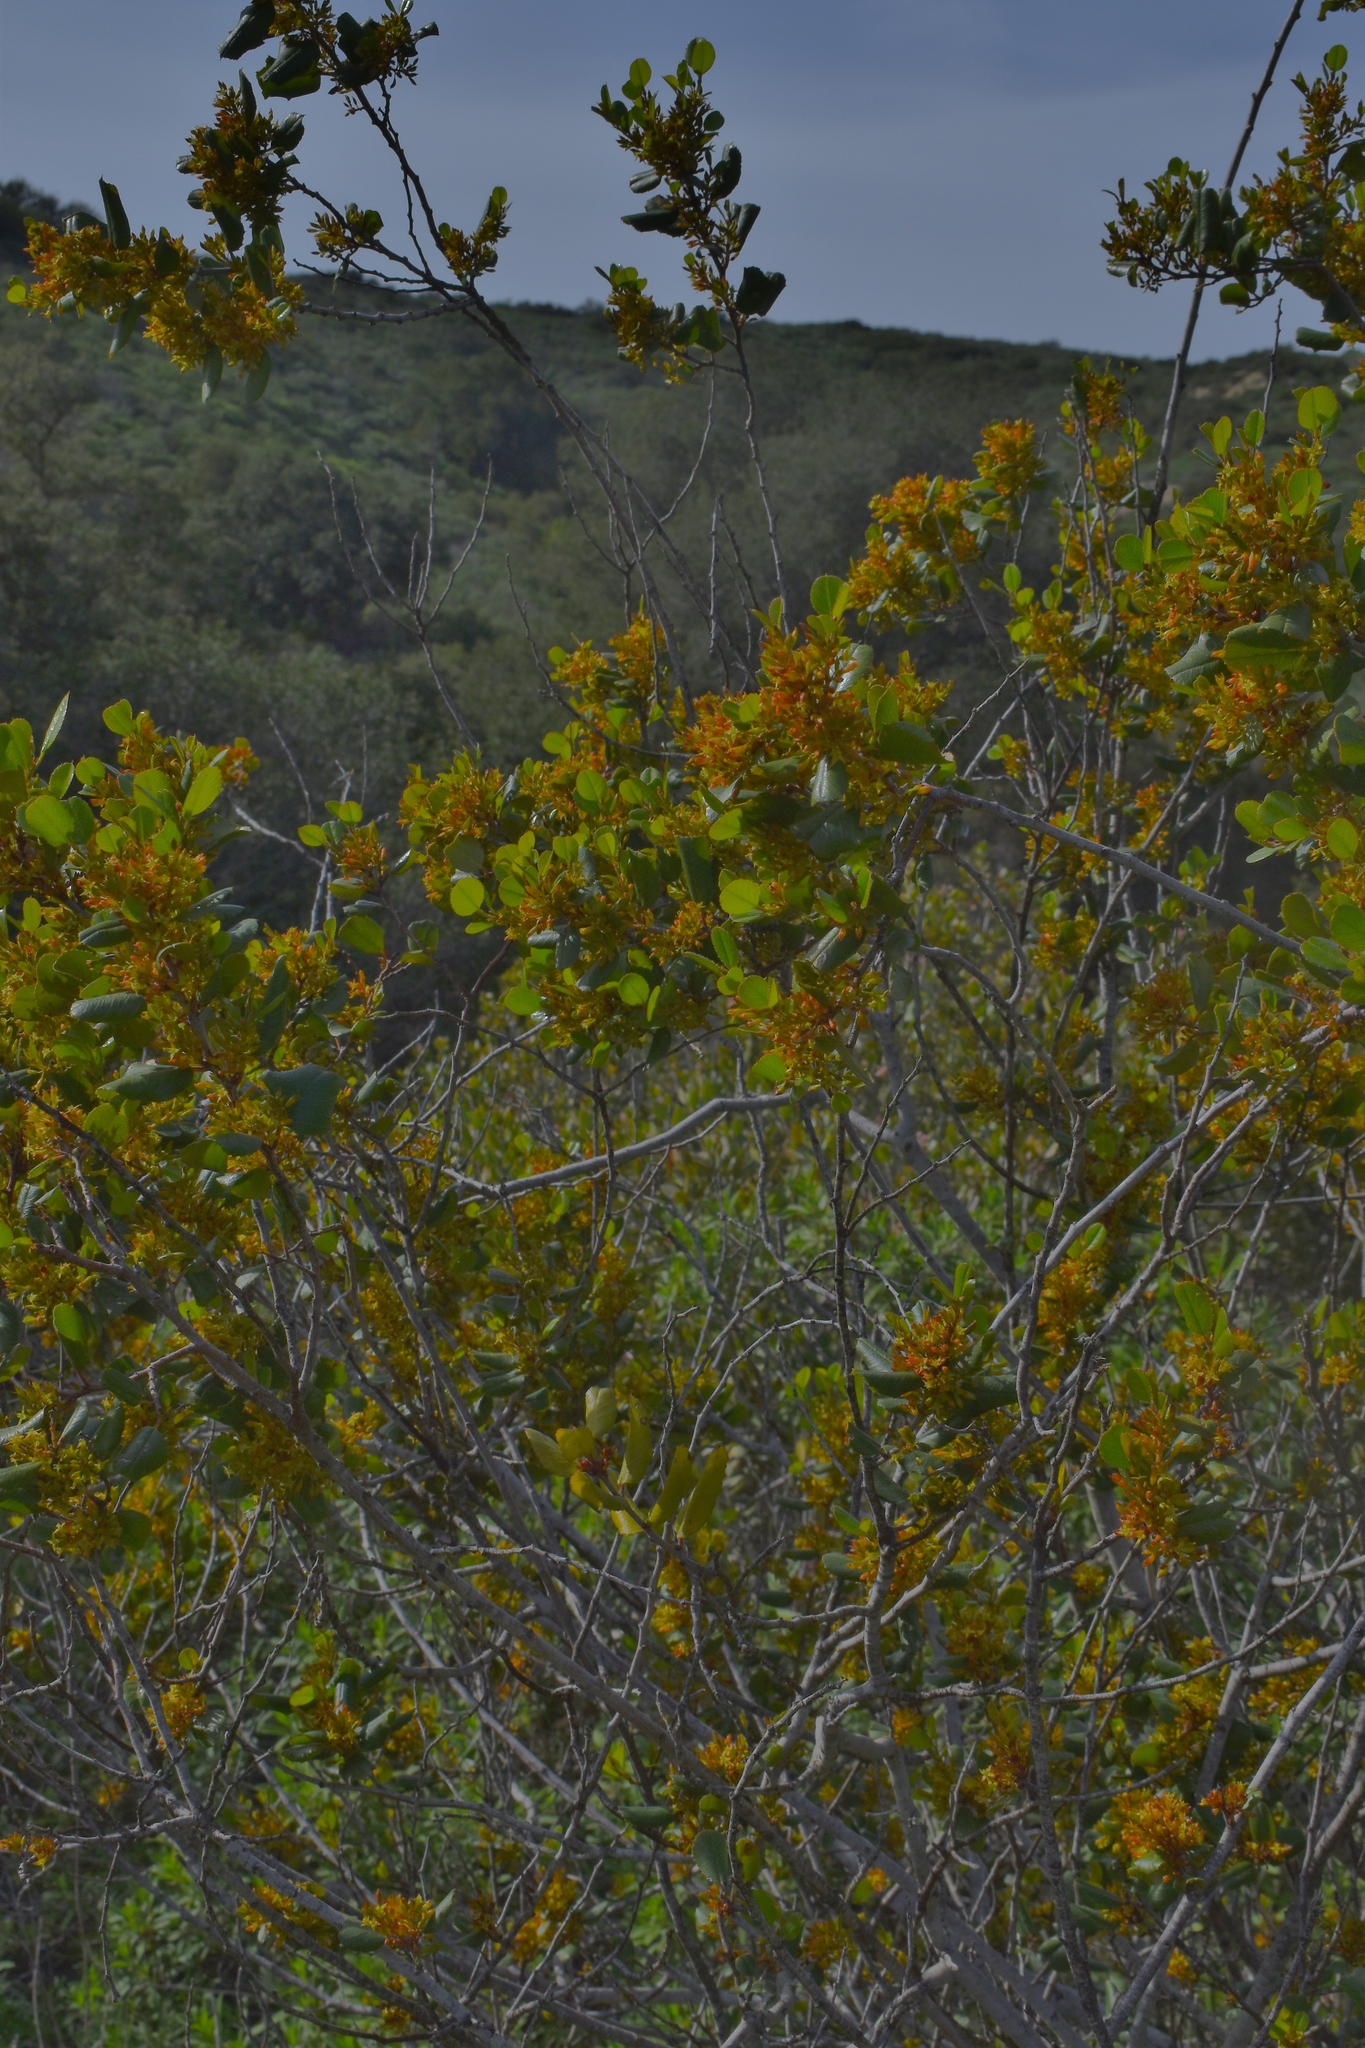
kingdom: Plantae
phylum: Tracheophyta
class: Magnoliopsida
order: Rosales
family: Rhamnaceae
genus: Endotropis
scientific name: Endotropis crocea
